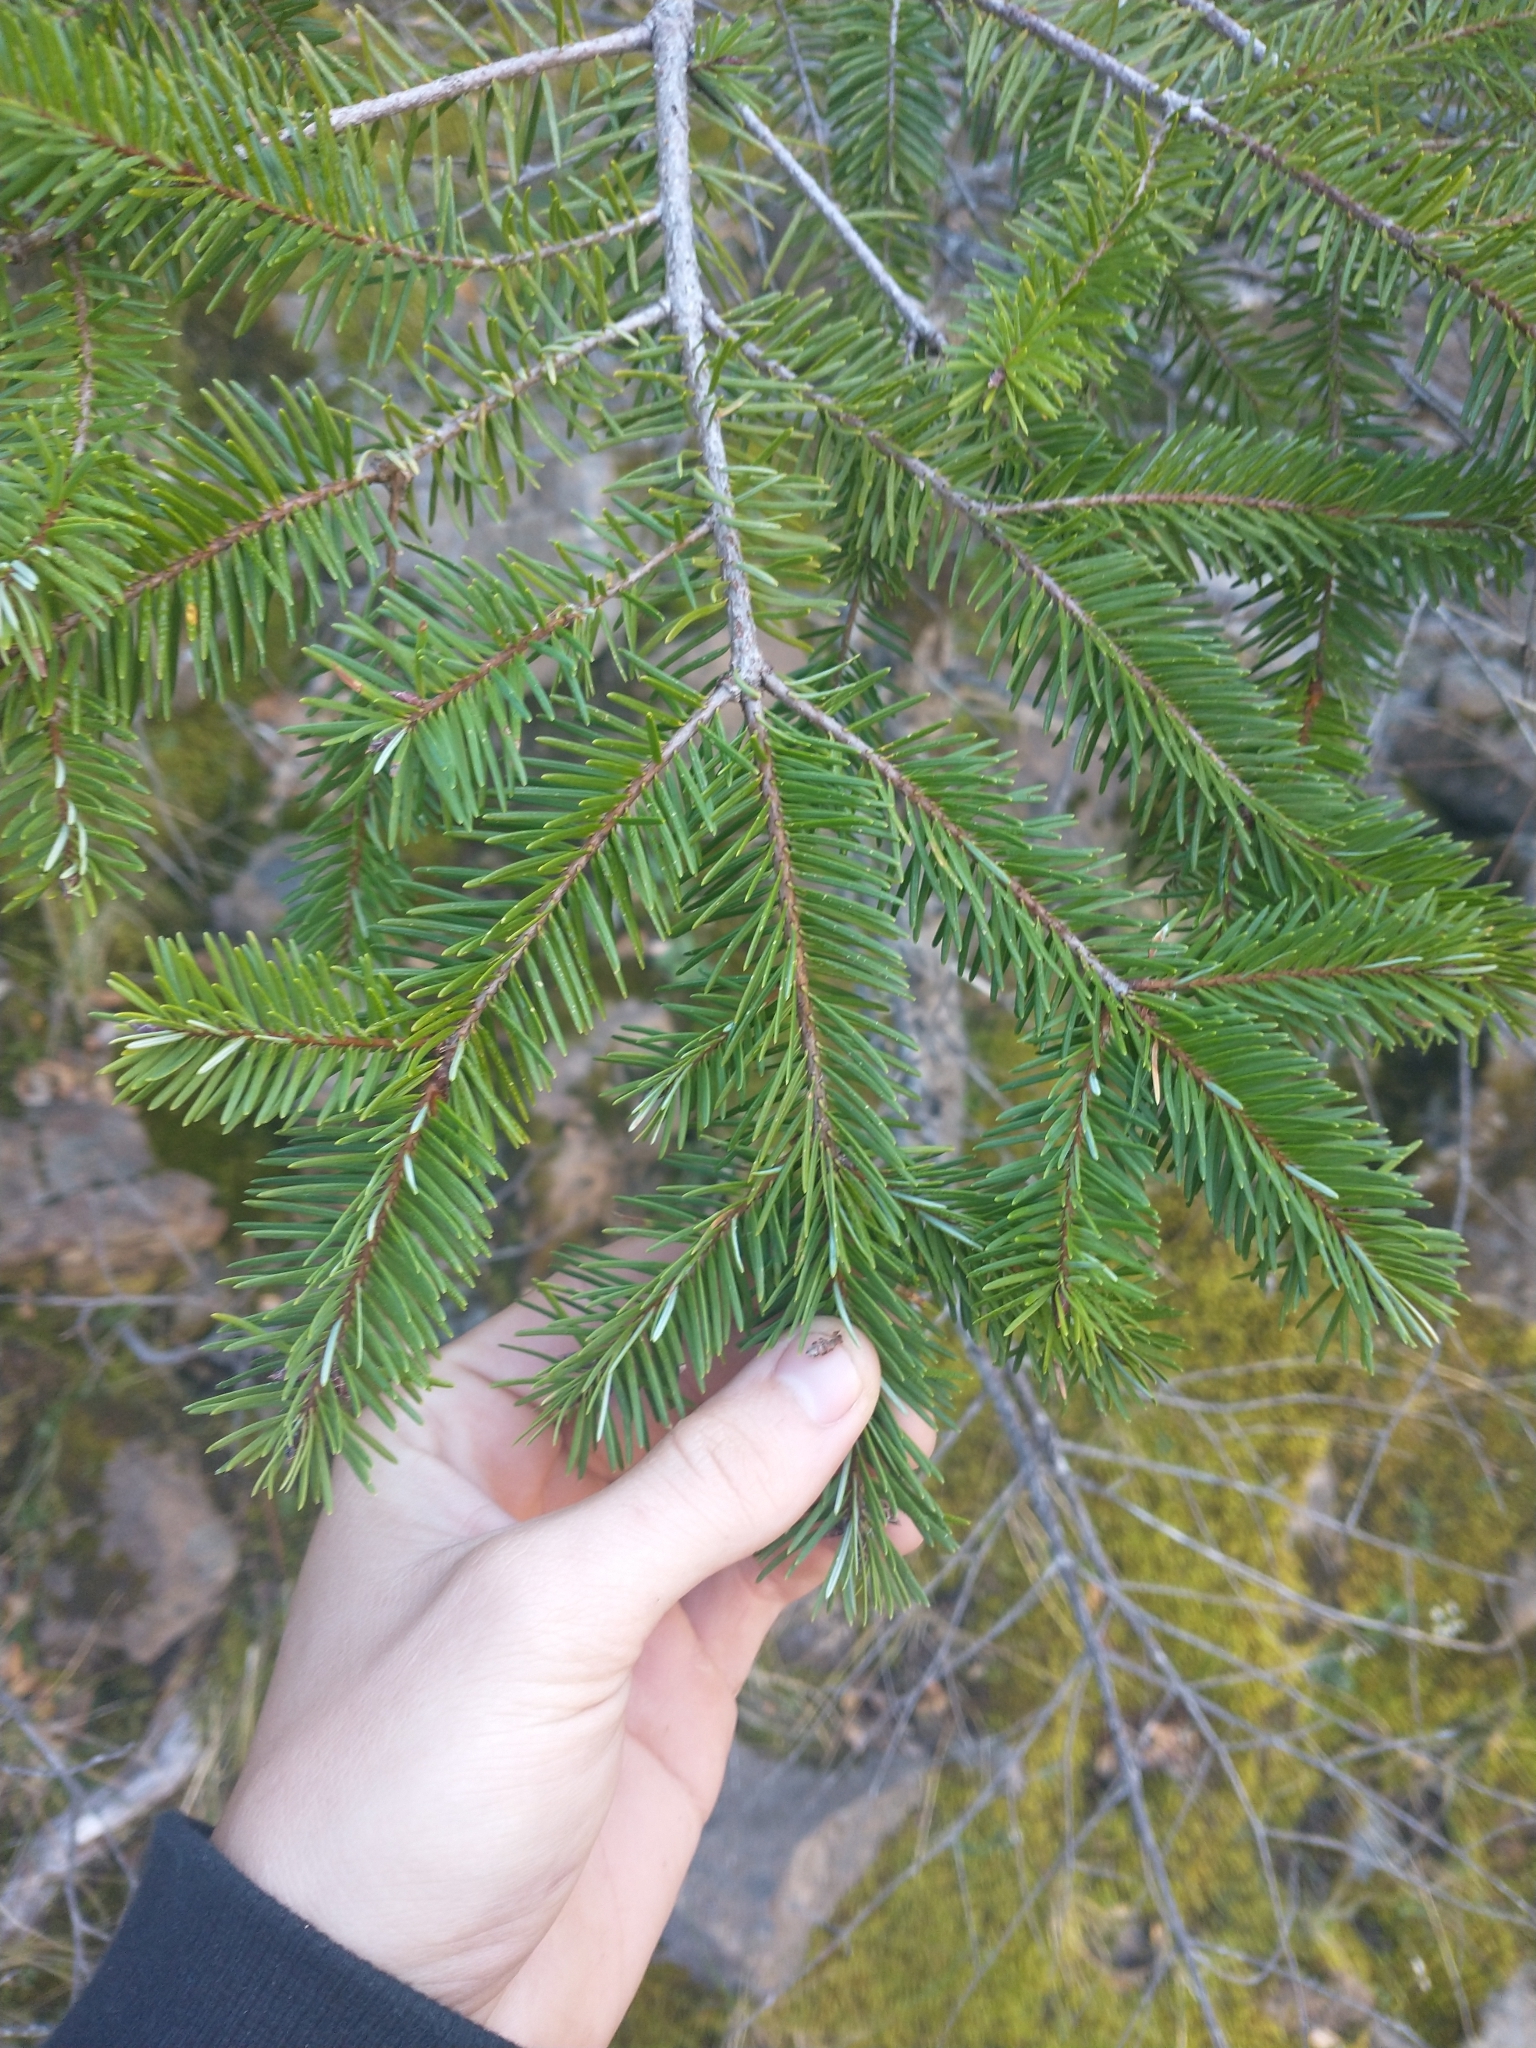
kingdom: Plantae
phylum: Tracheophyta
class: Pinopsida
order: Pinales
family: Pinaceae
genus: Pseudotsuga
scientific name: Pseudotsuga menziesii
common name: Douglas fir
